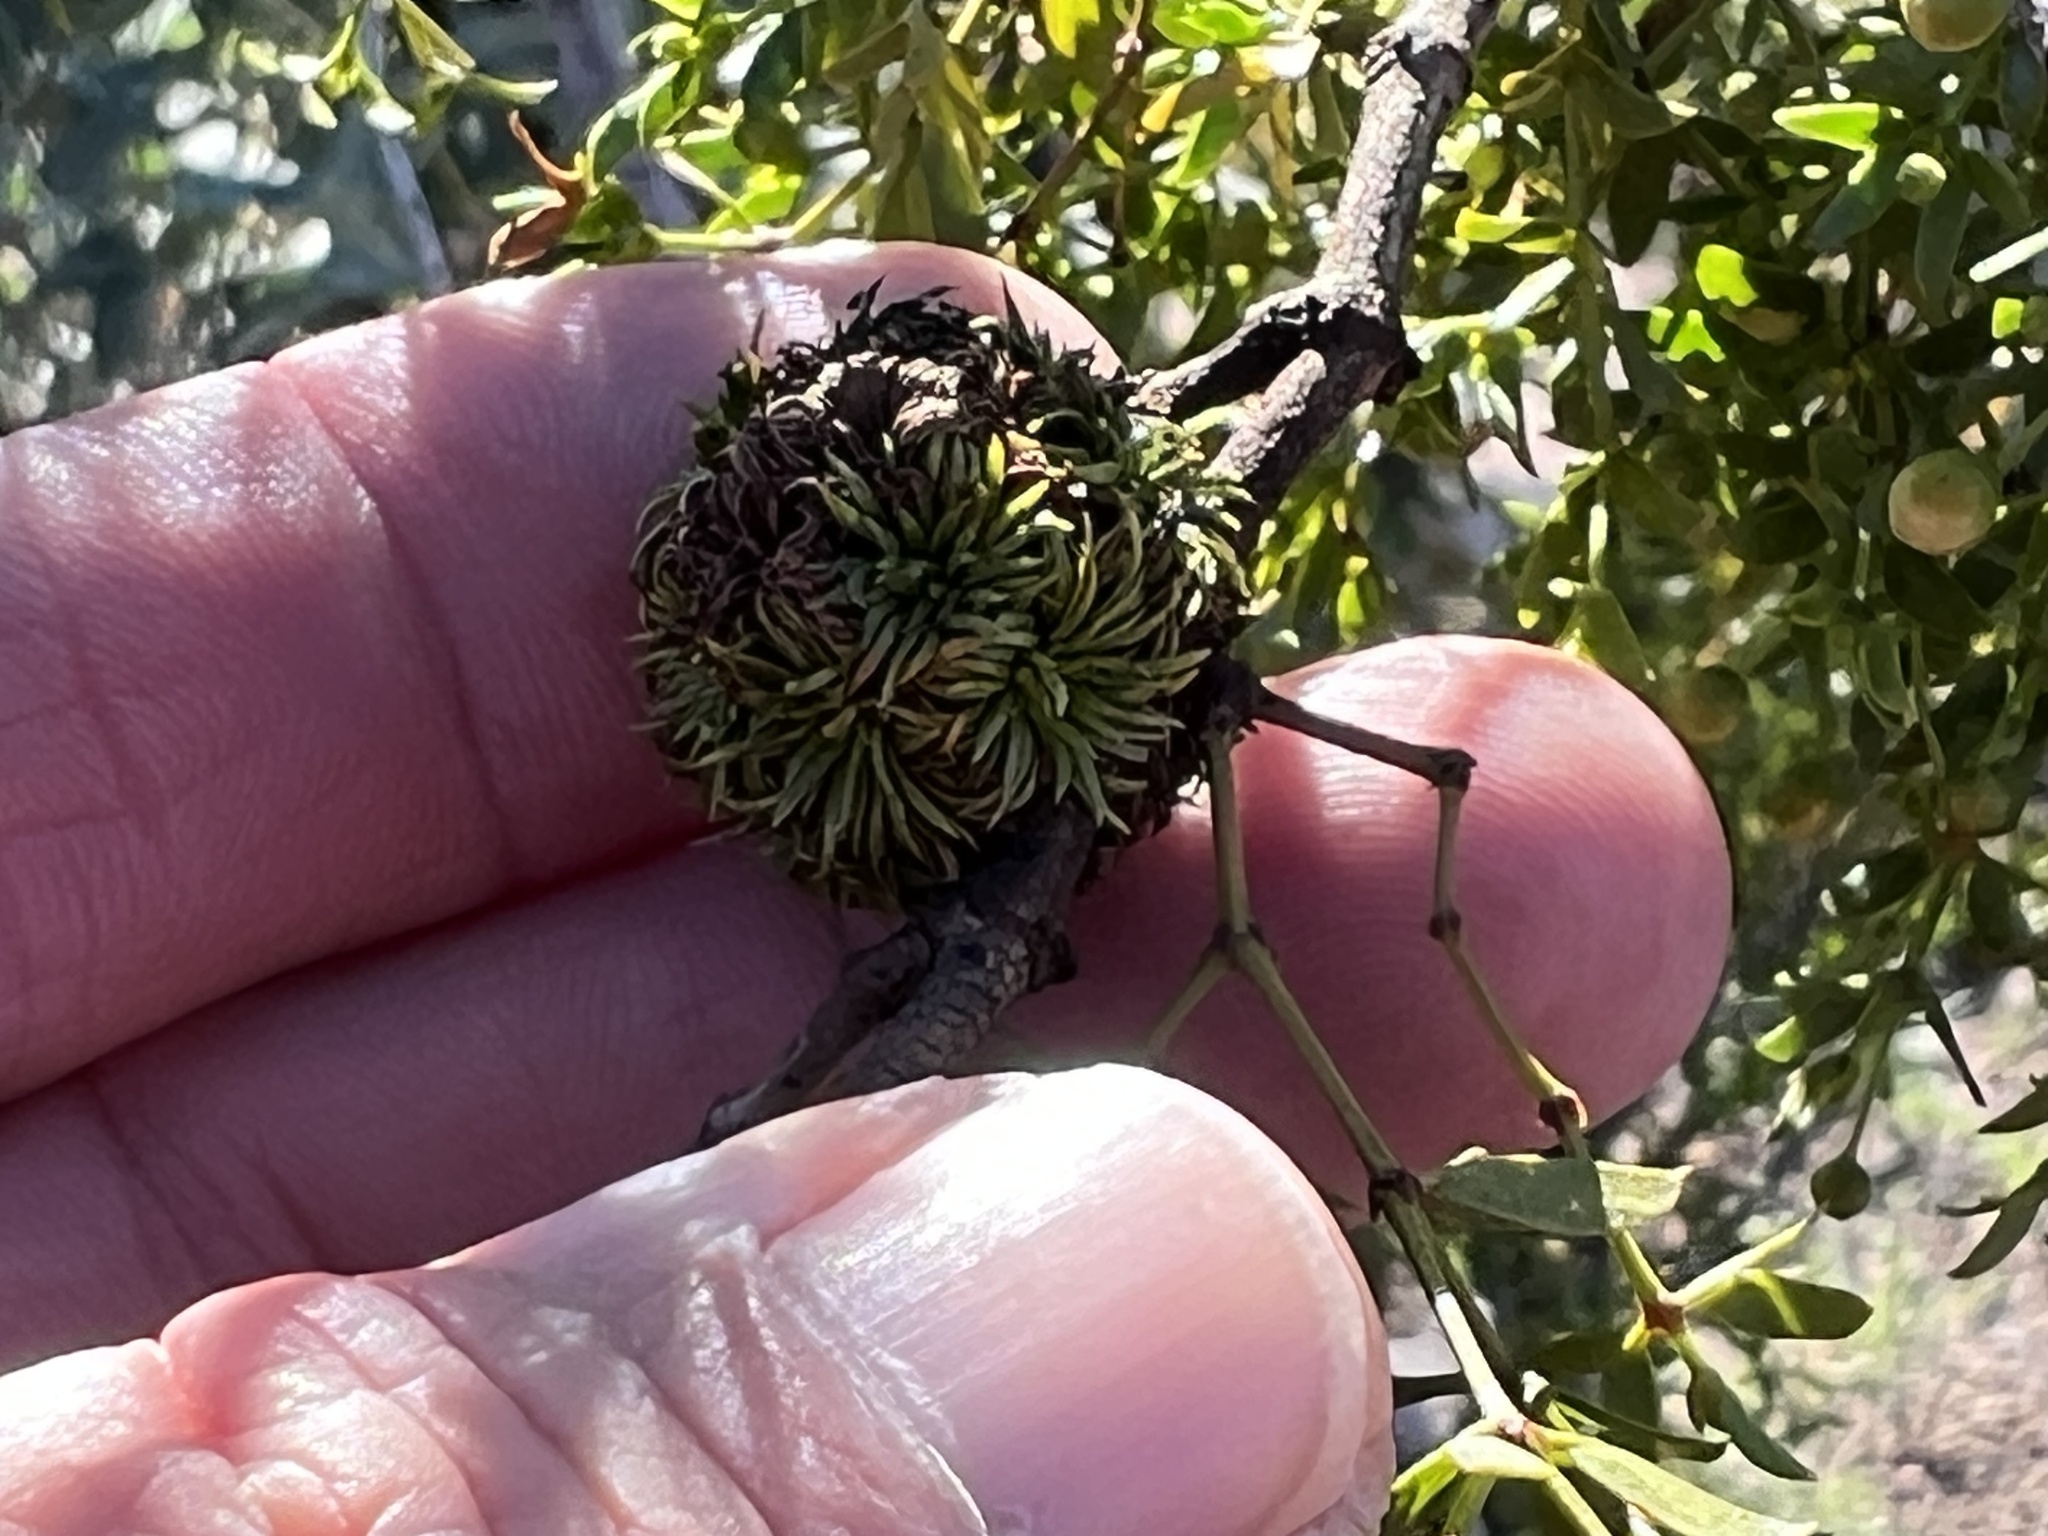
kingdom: Animalia
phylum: Arthropoda
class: Insecta
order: Diptera
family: Cecidomyiidae
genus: Asphondylia
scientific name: Asphondylia auripila
